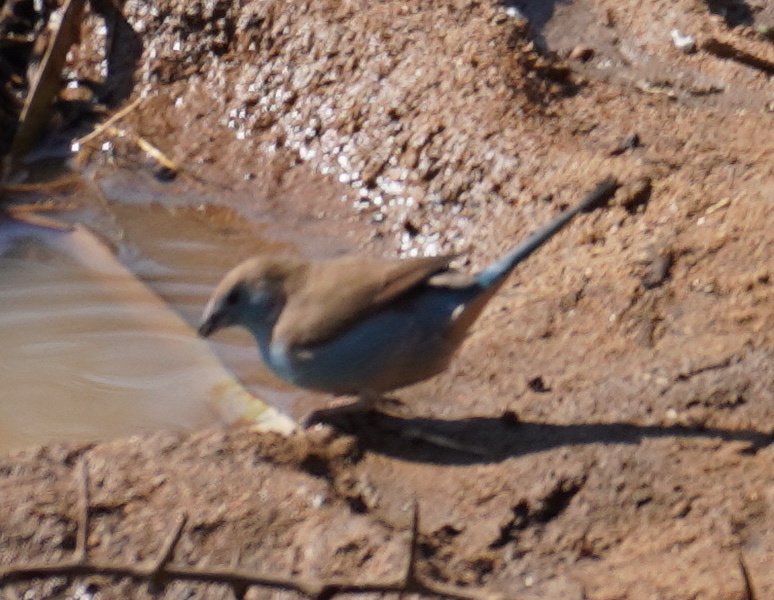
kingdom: Animalia
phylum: Chordata
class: Aves
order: Passeriformes
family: Estrildidae
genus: Uraeginthus
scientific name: Uraeginthus angolensis
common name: Blue waxbill
